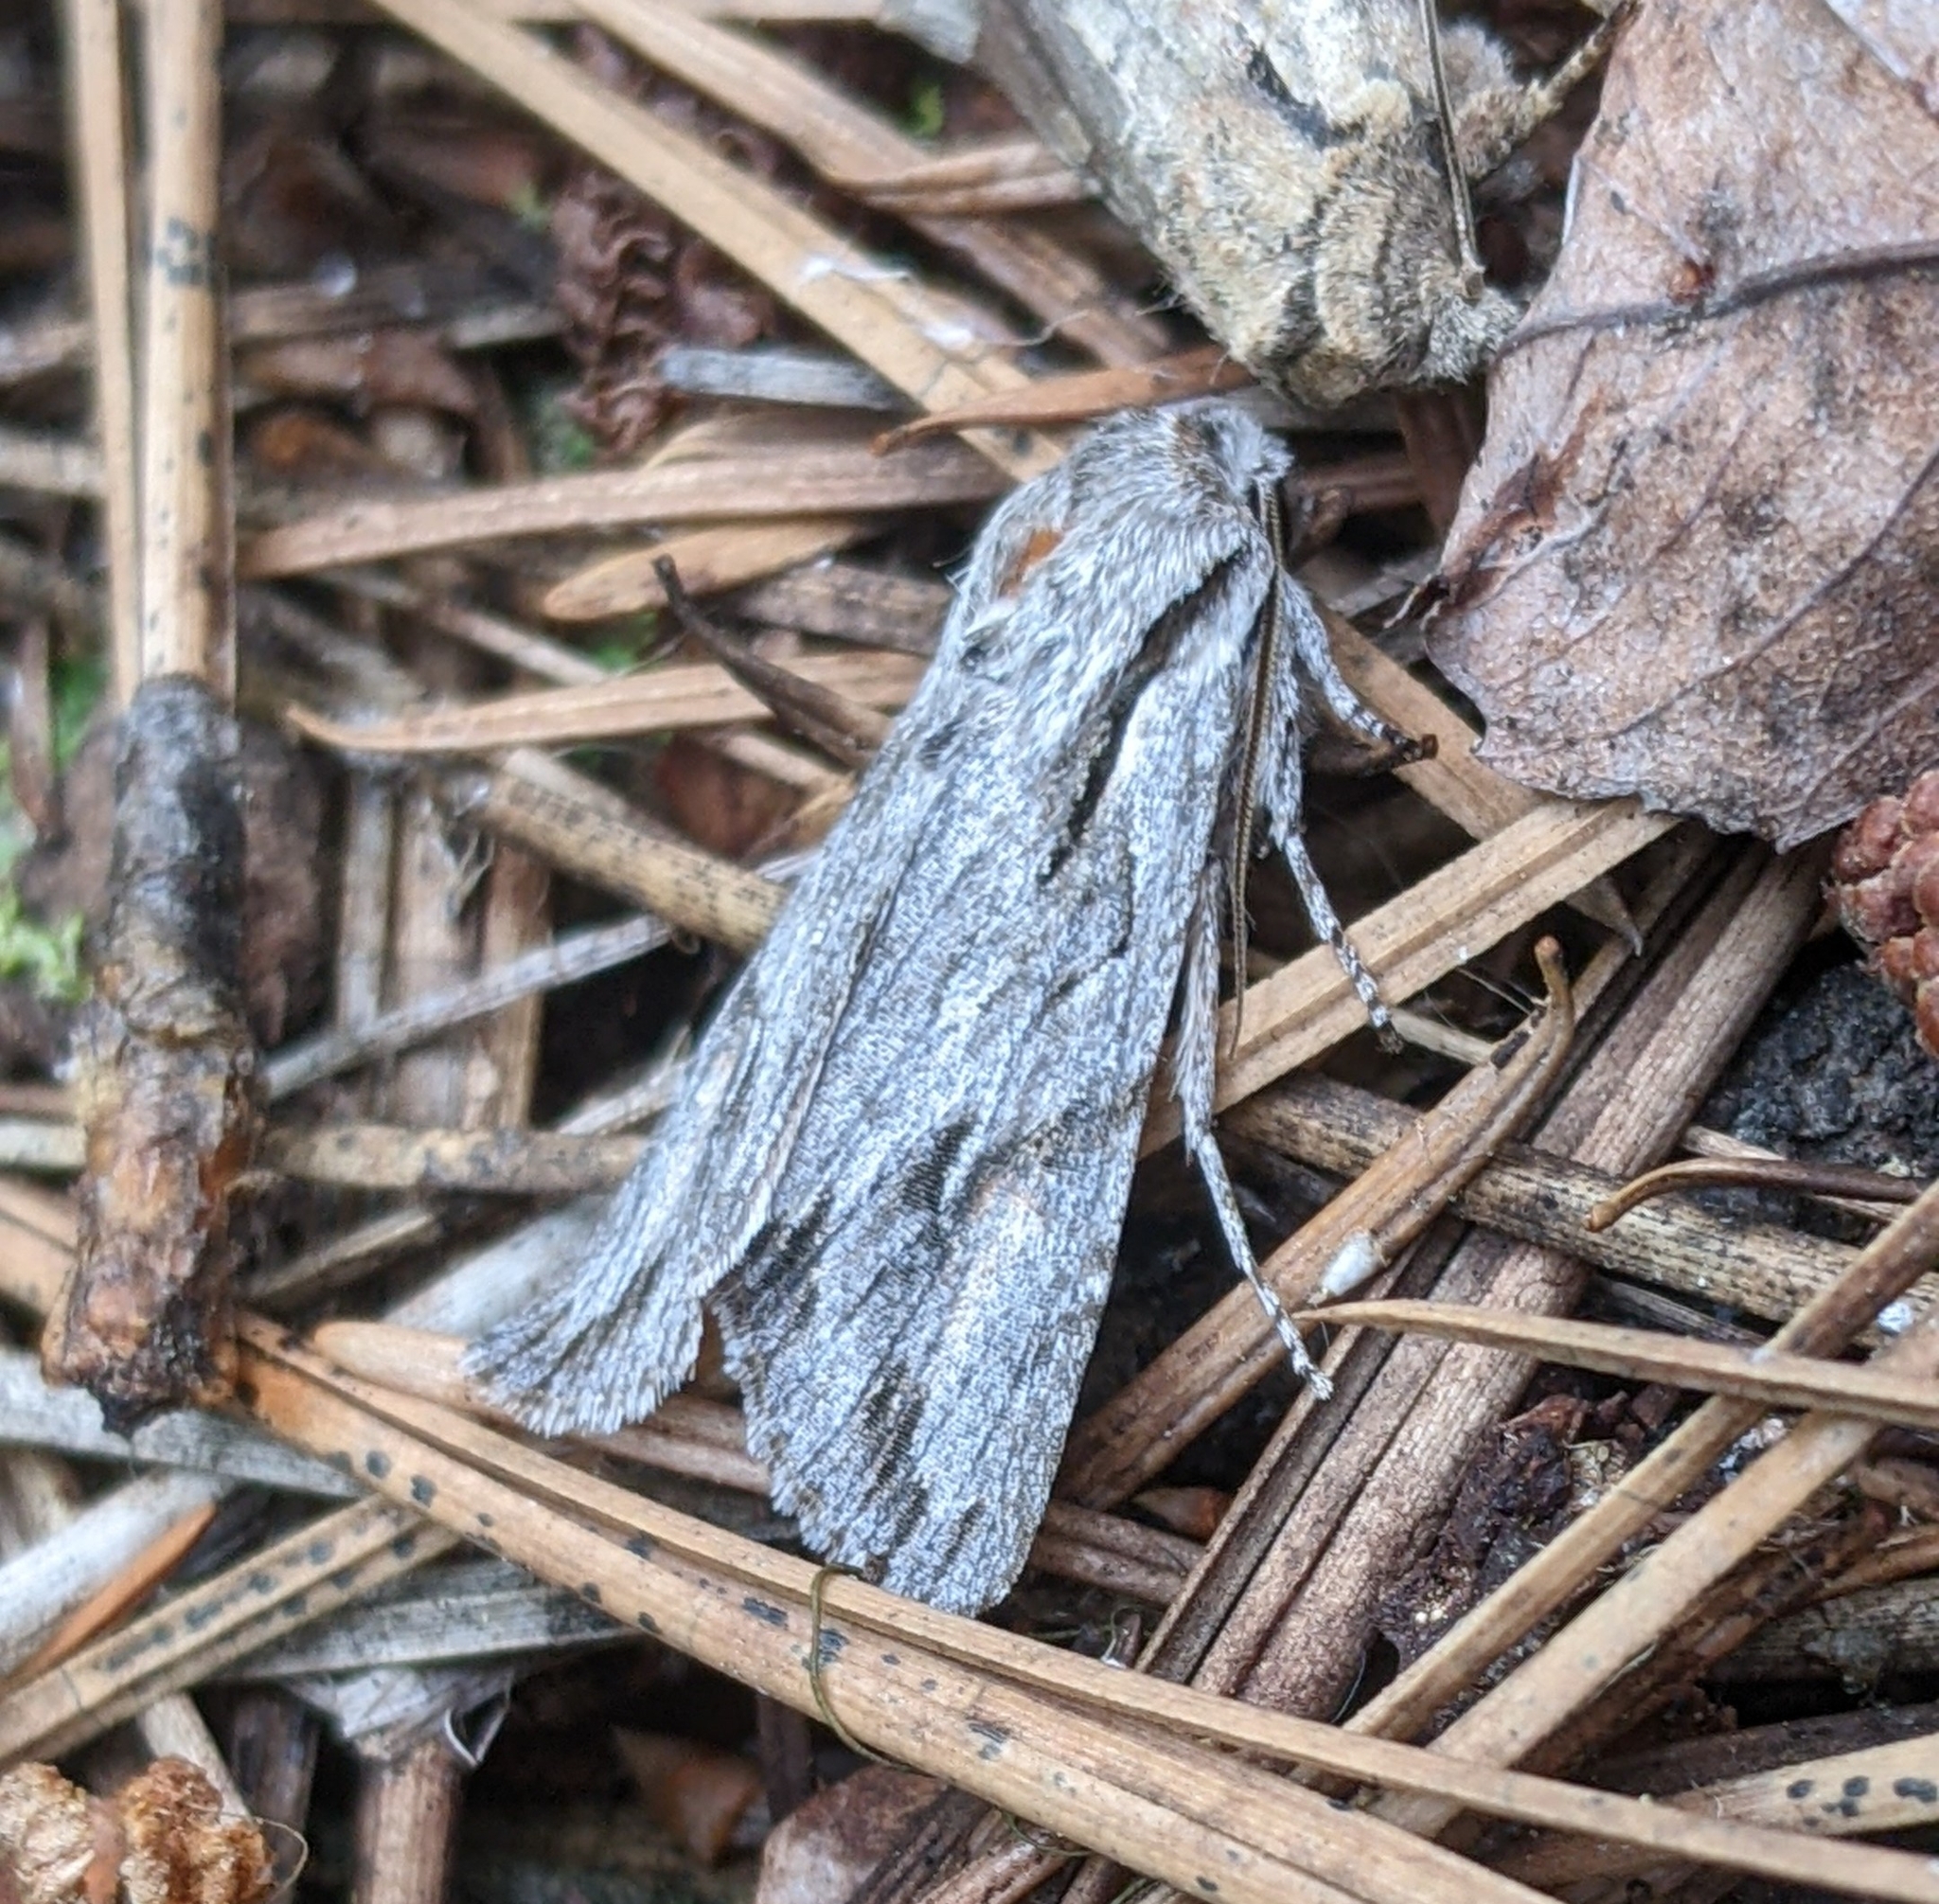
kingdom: Animalia
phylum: Arthropoda
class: Insecta
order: Lepidoptera
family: Noctuidae
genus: Egira
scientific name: Egira crucialis
